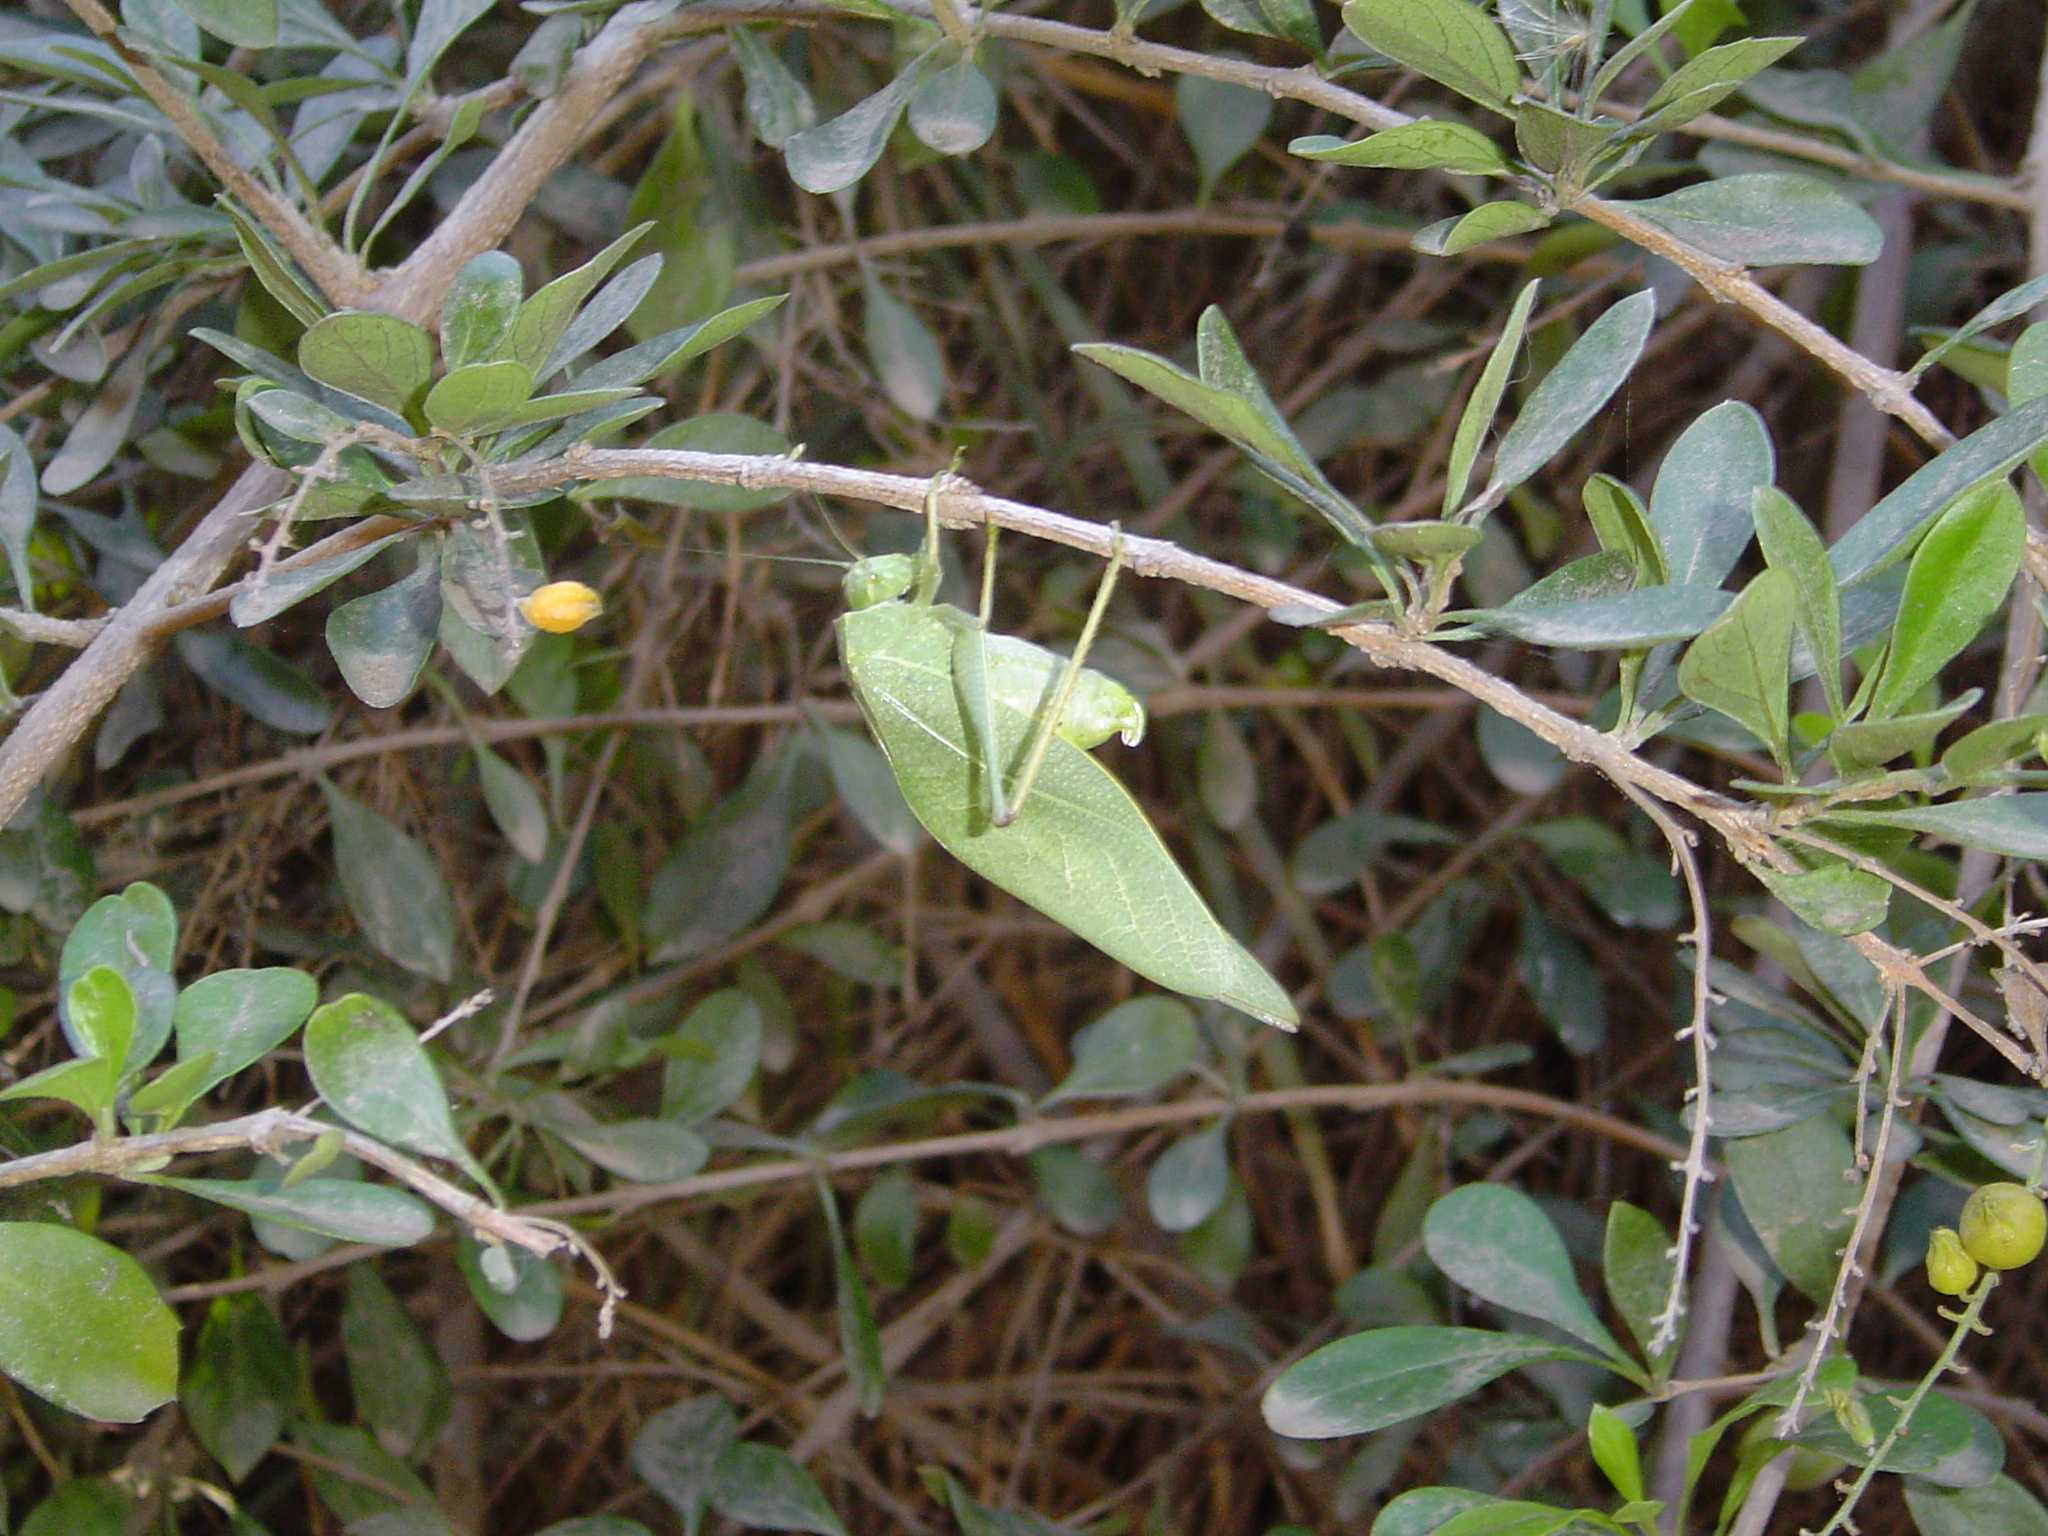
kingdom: Animalia
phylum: Arthropoda
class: Insecta
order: Orthoptera
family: Tettigoniidae
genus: Microcentrum
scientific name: Microcentrum latifrons
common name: Southwestern angle-wing
